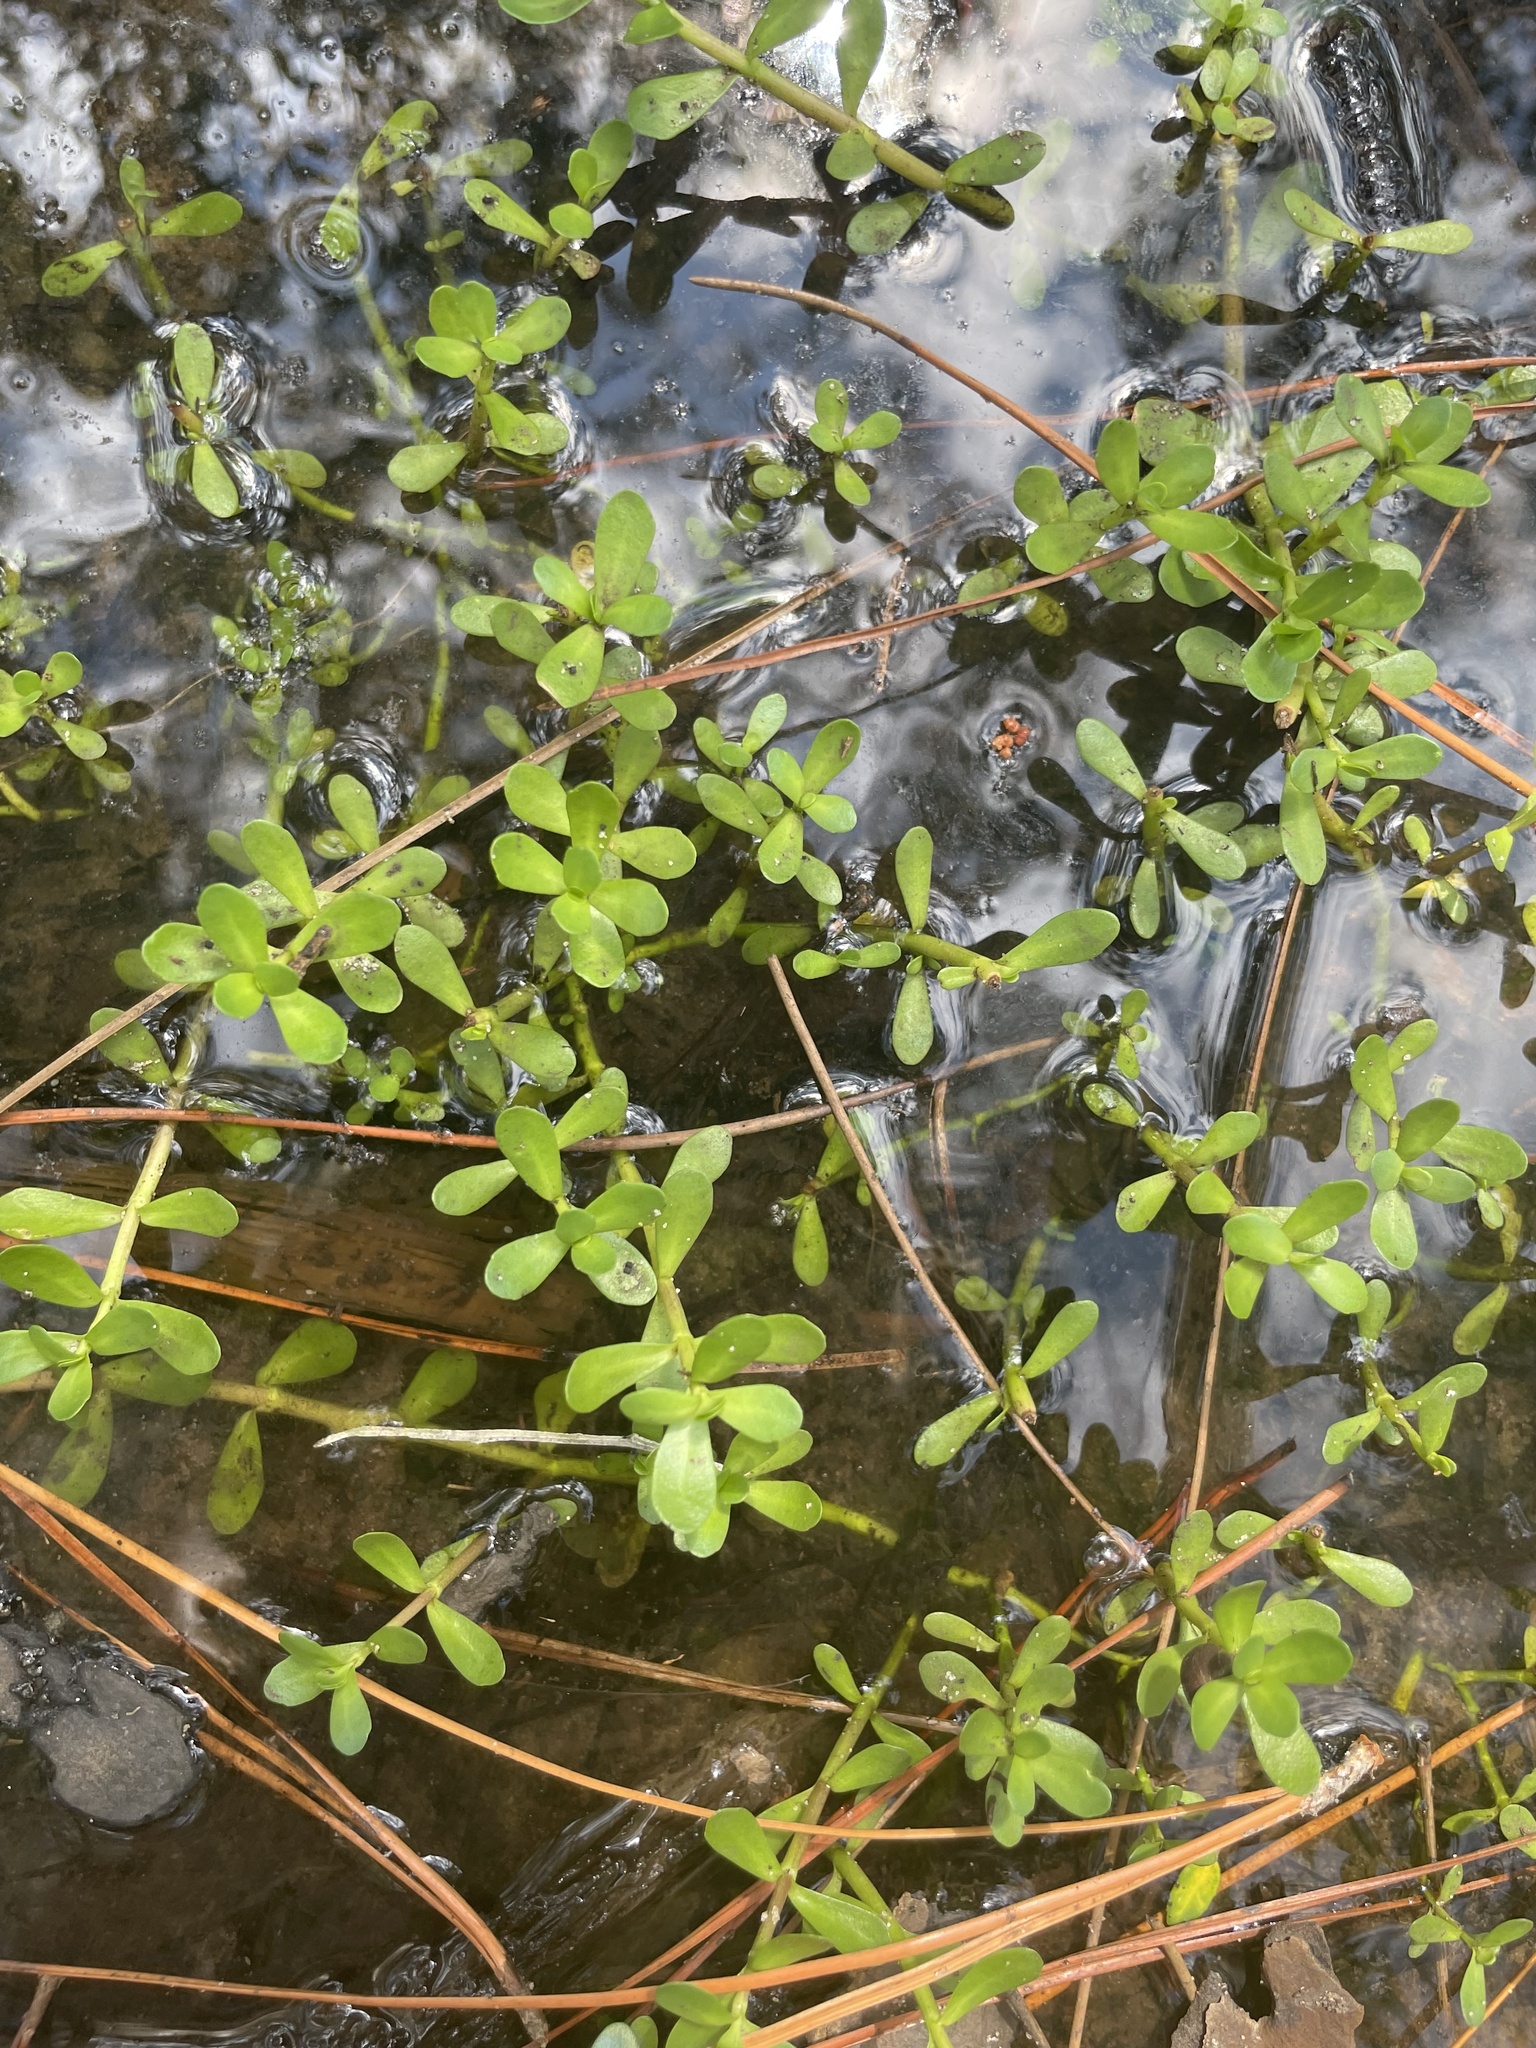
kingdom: Plantae
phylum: Tracheophyta
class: Magnoliopsida
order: Lamiales
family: Plantaginaceae
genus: Bacopa
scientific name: Bacopa monnieri
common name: Indian-pennywort
